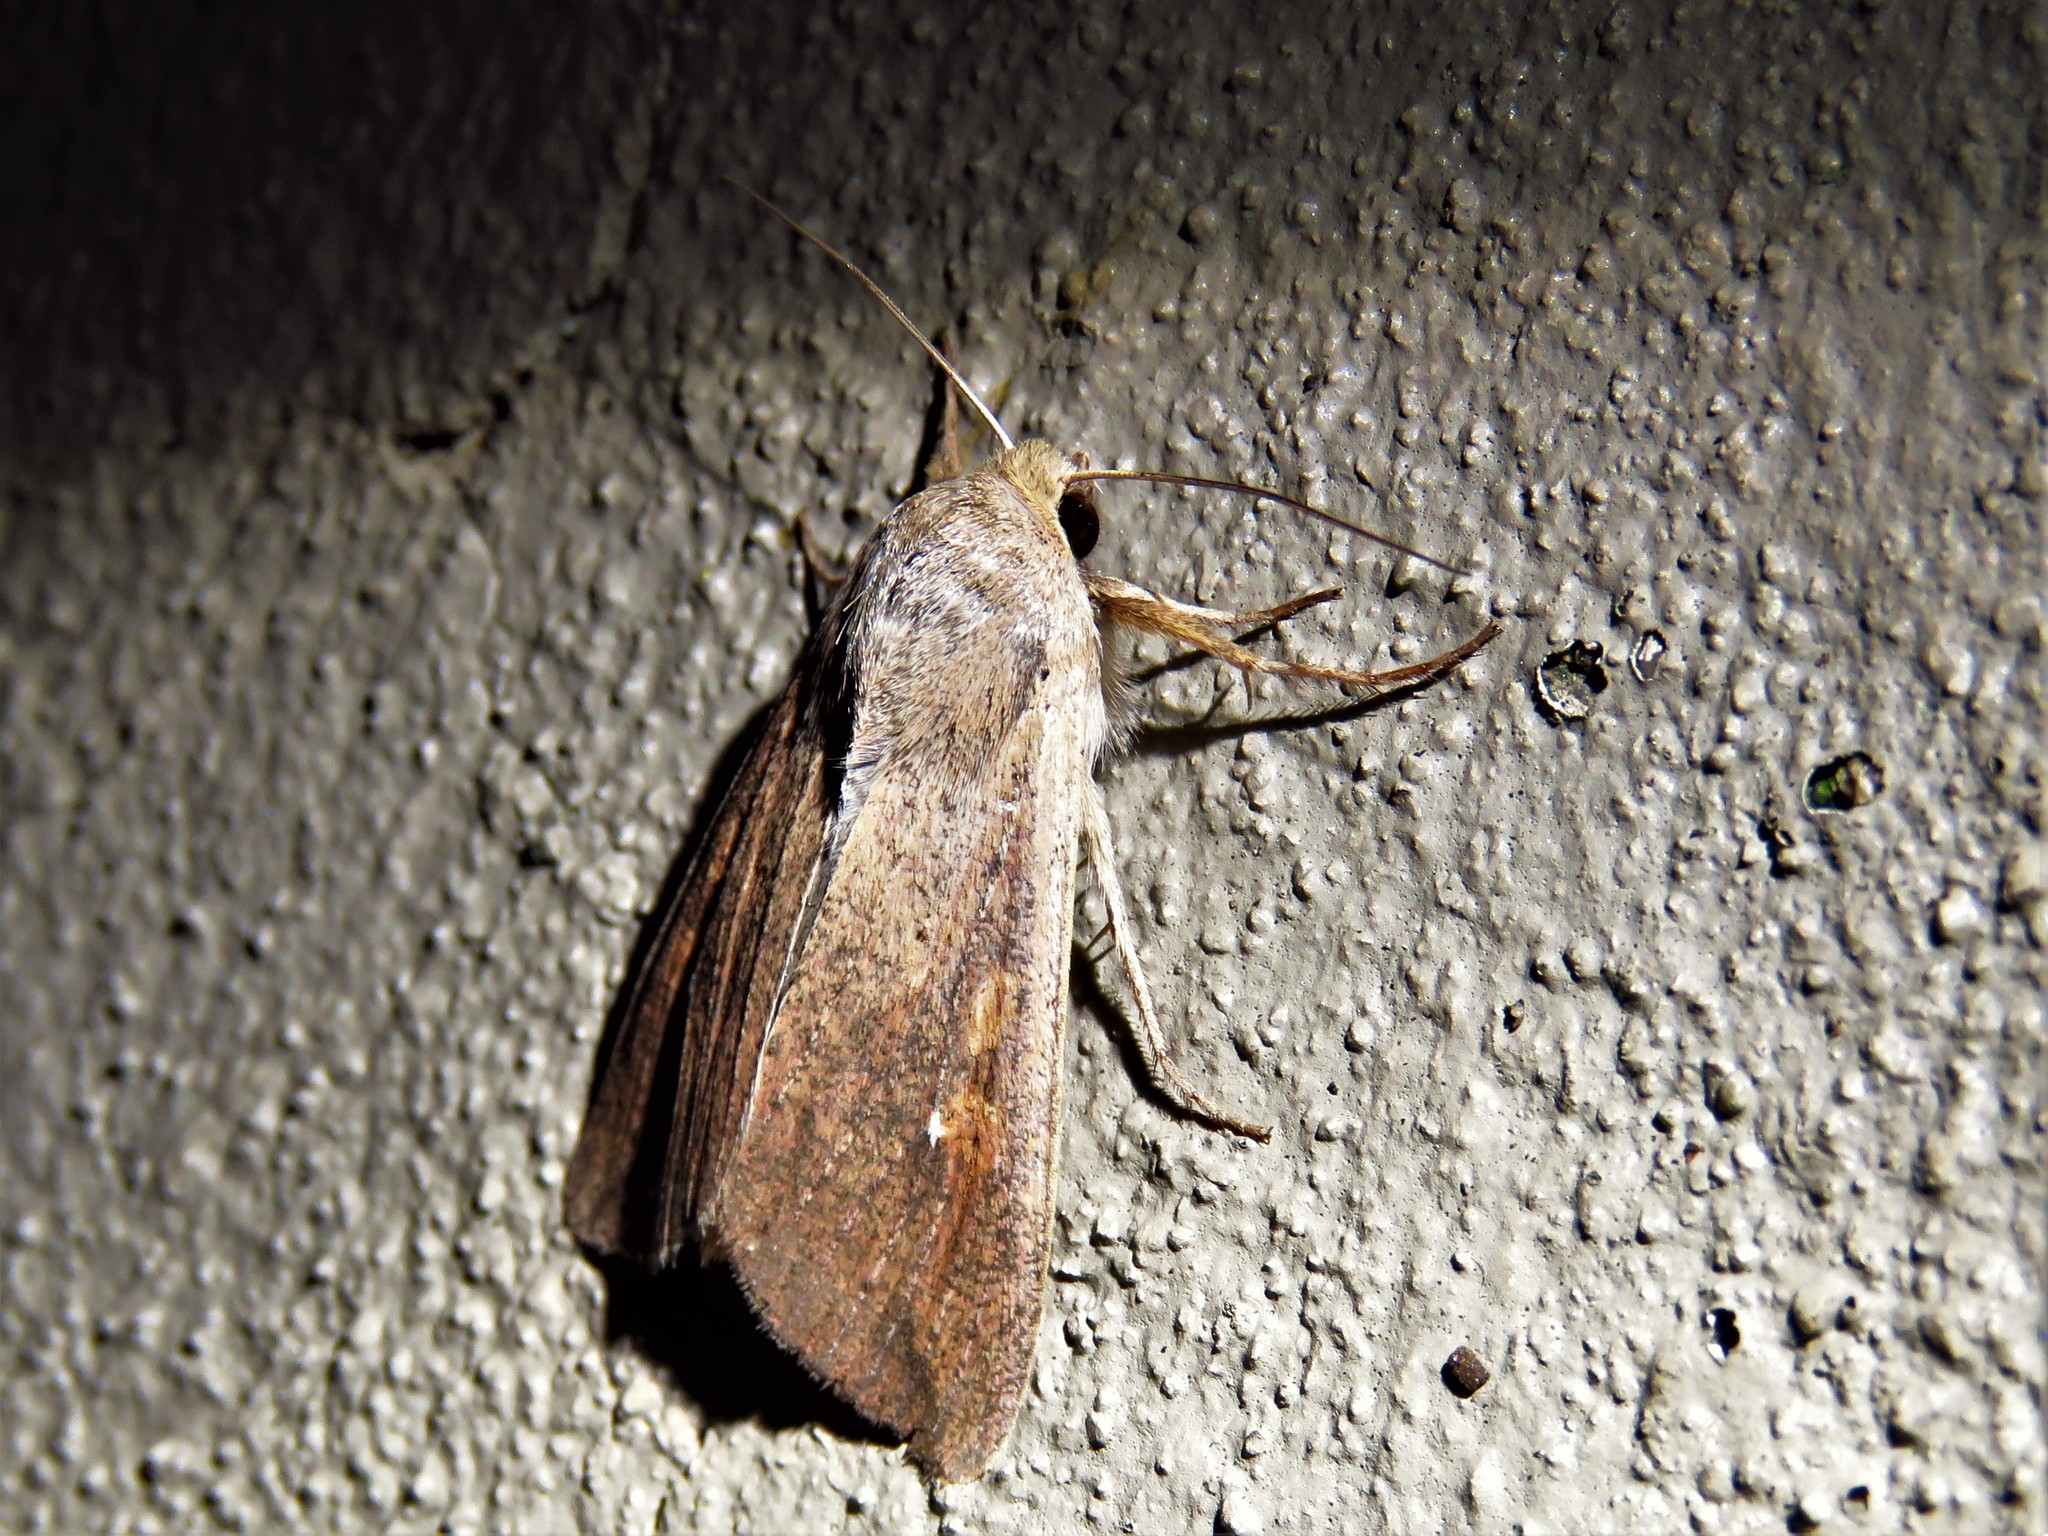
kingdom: Animalia
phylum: Arthropoda
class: Insecta
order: Lepidoptera
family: Noctuidae
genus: Mythimna
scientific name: Mythimna unipuncta
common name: White-speck
